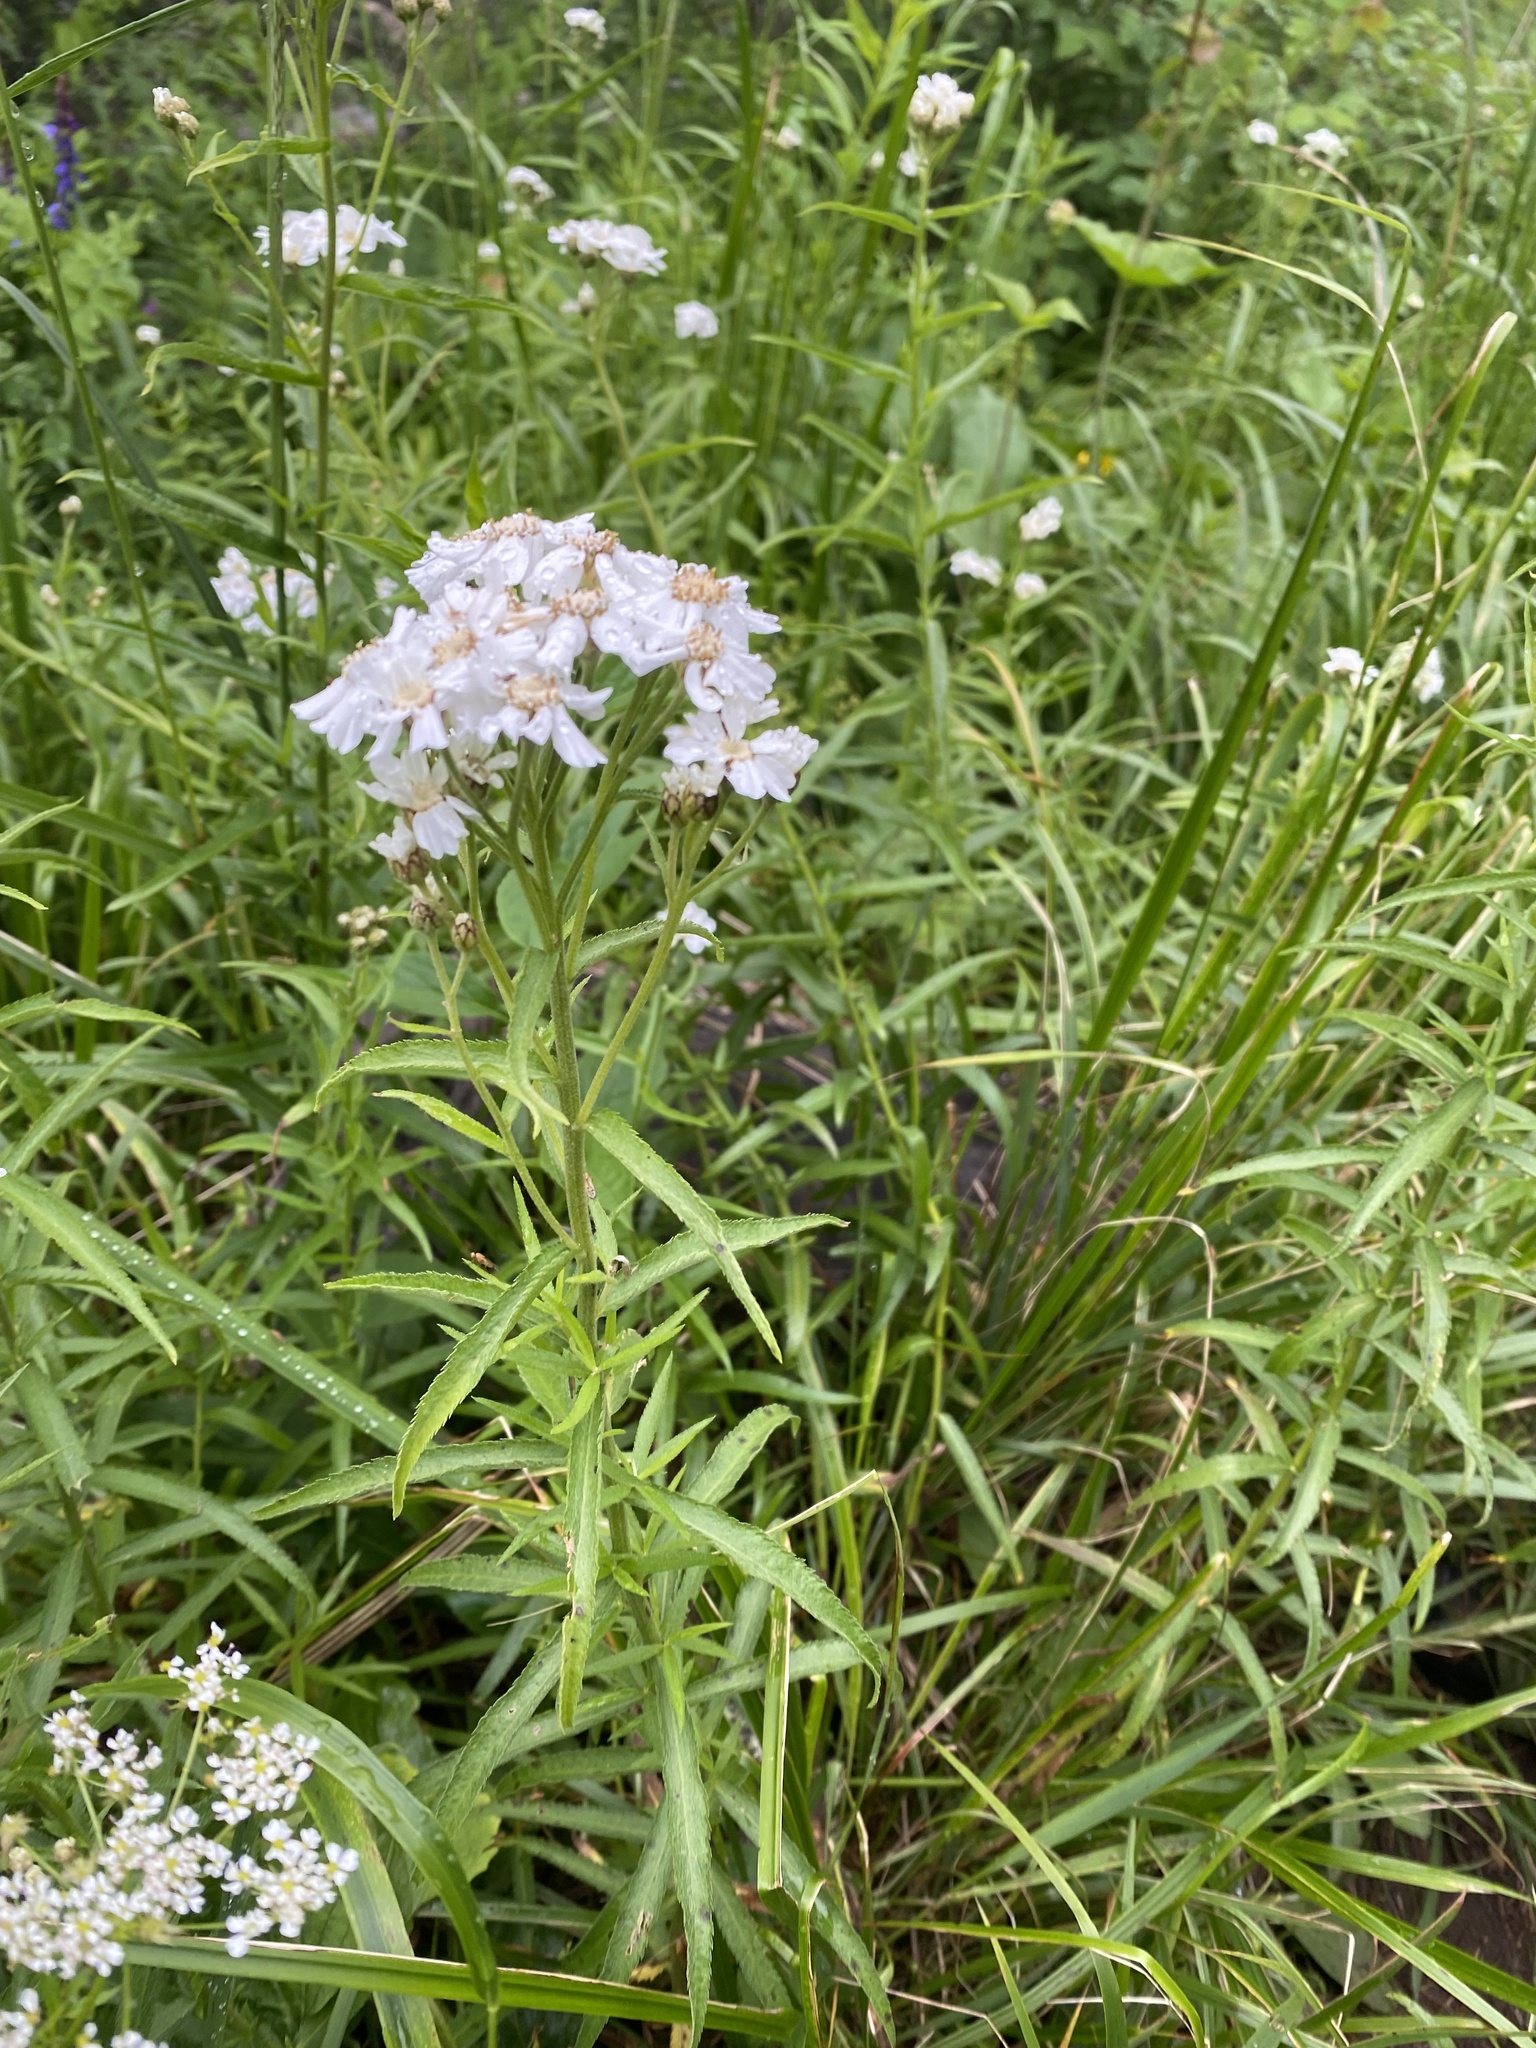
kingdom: Plantae
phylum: Tracheophyta
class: Magnoliopsida
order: Asterales
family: Asteraceae
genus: Achillea
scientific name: Achillea biserrata
